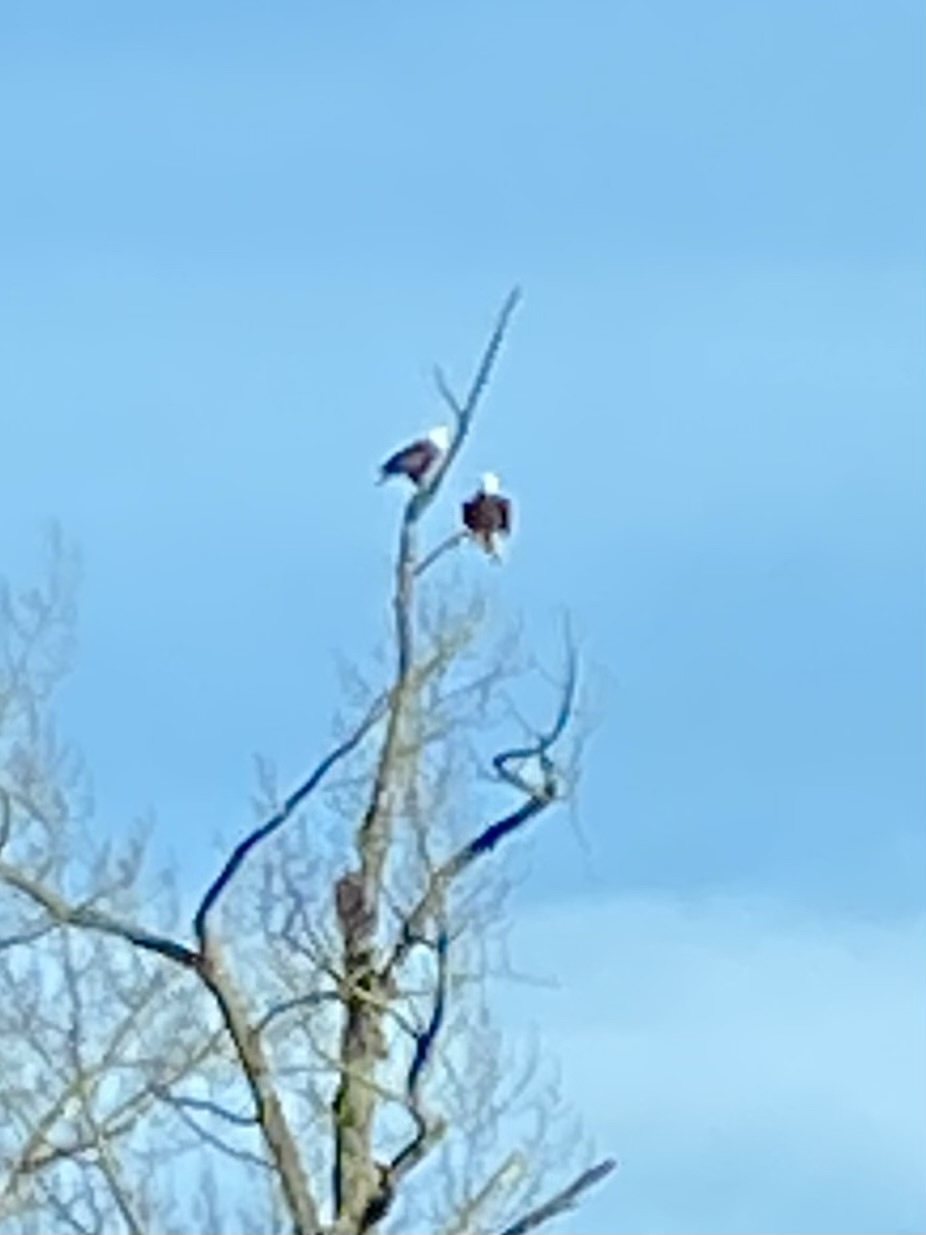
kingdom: Animalia
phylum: Chordata
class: Aves
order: Accipitriformes
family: Accipitridae
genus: Haliaeetus
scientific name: Haliaeetus leucocephalus
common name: Bald eagle
